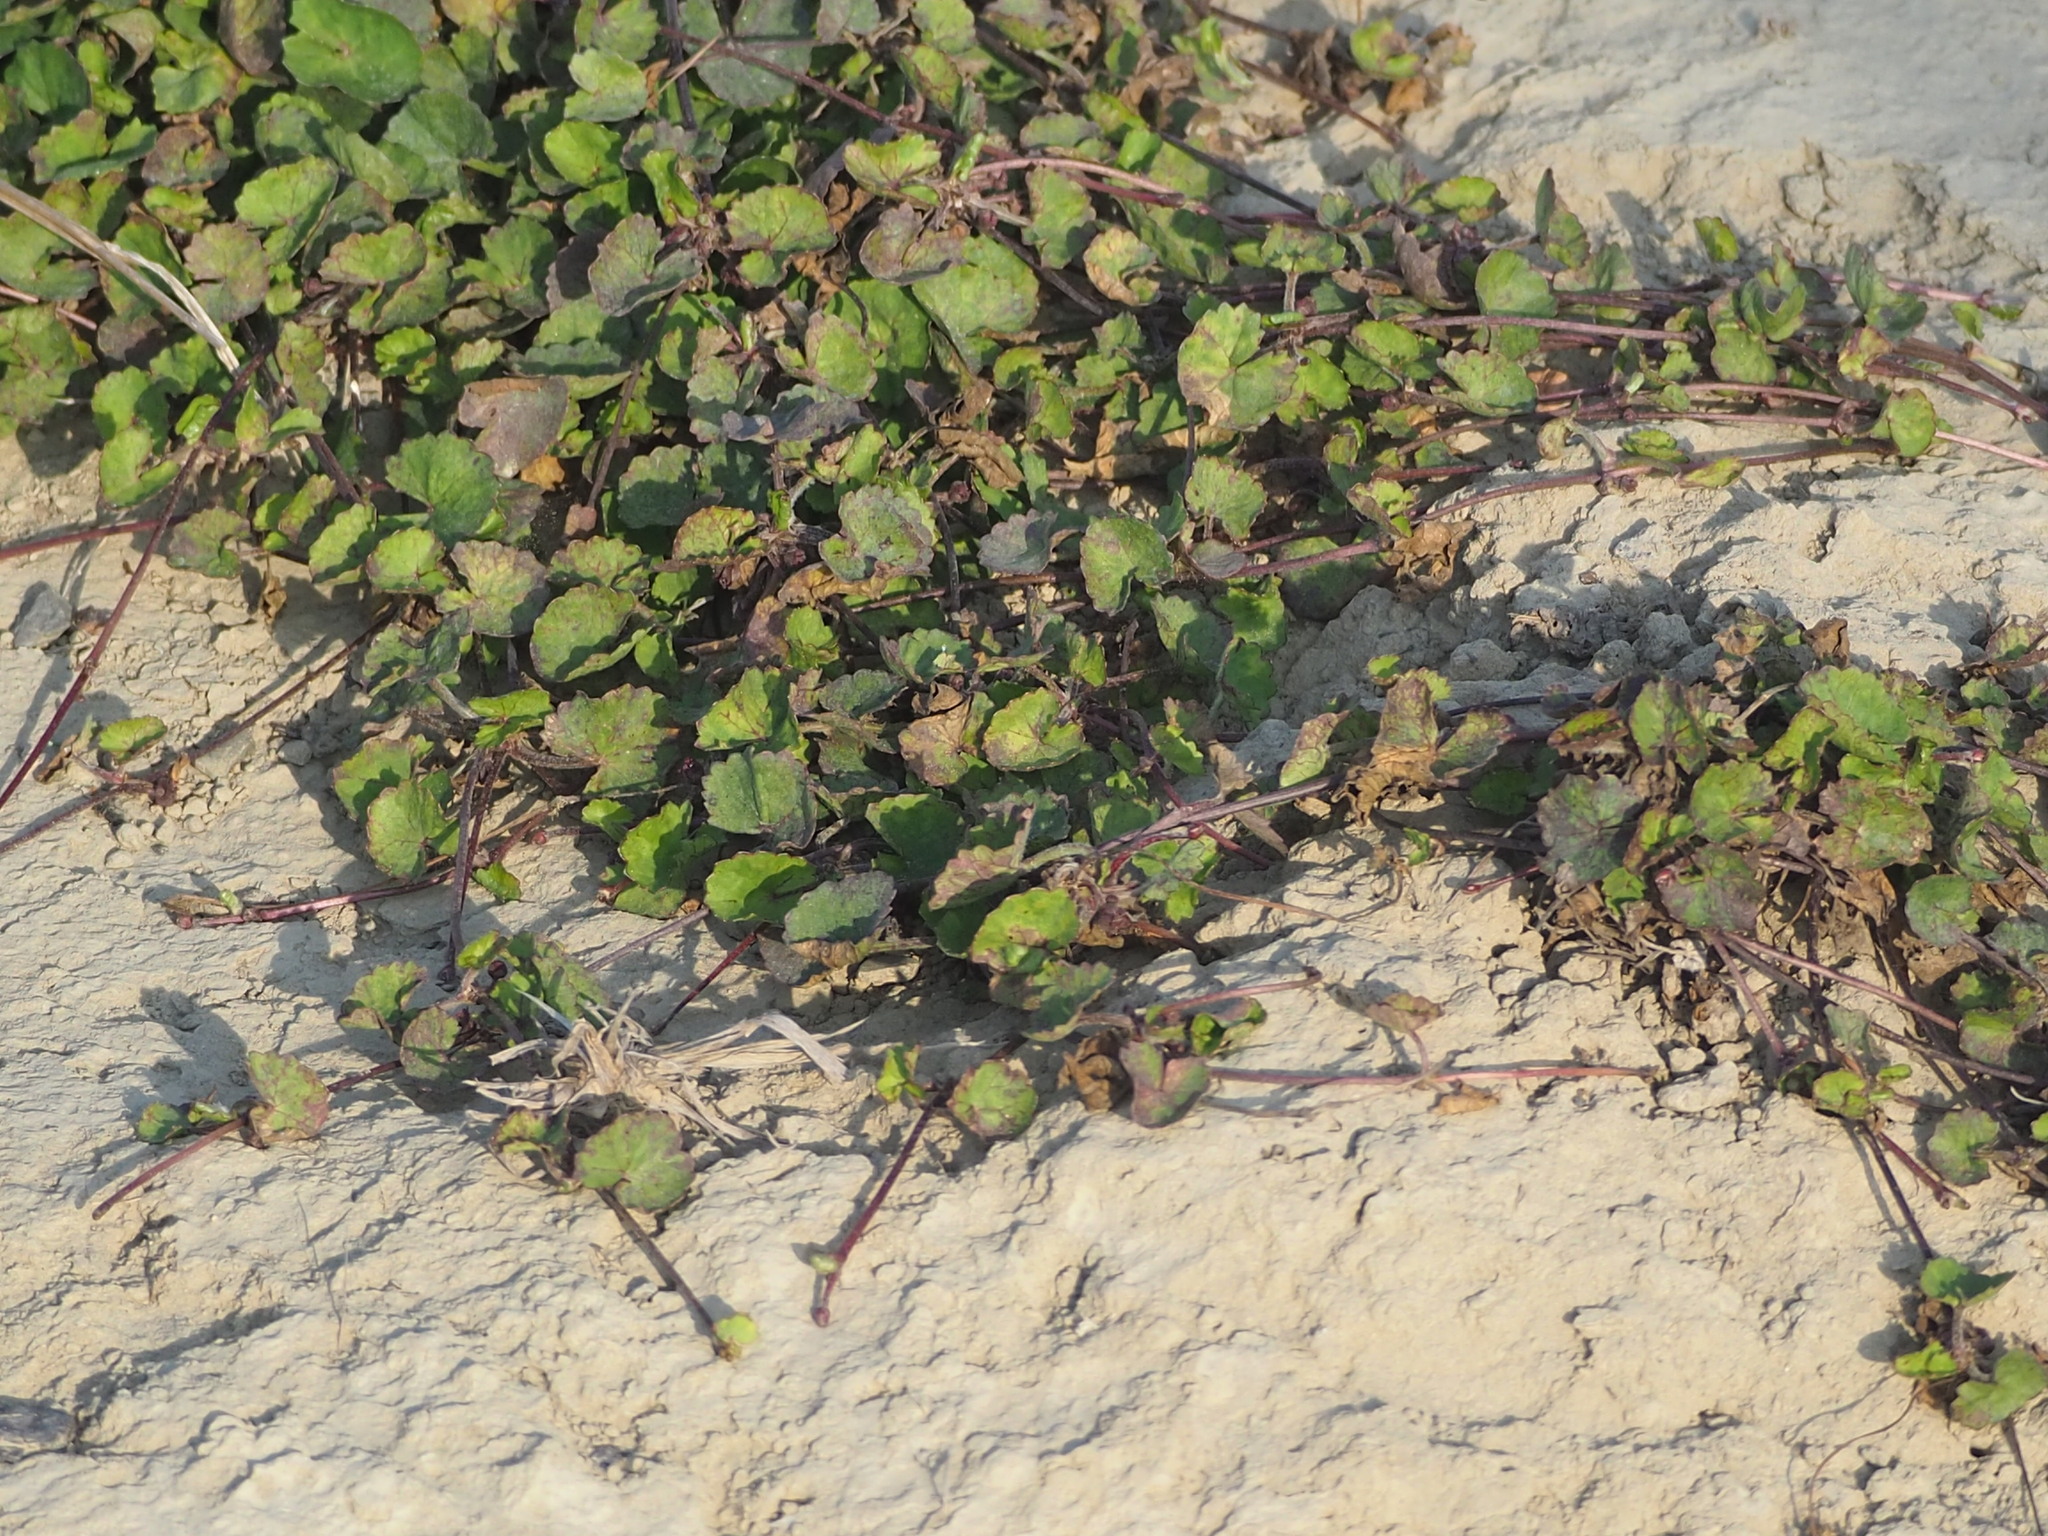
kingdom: Plantae
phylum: Tracheophyta
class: Magnoliopsida
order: Apiales
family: Apiaceae
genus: Centella
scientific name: Centella asiatica
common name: Spadeleaf
